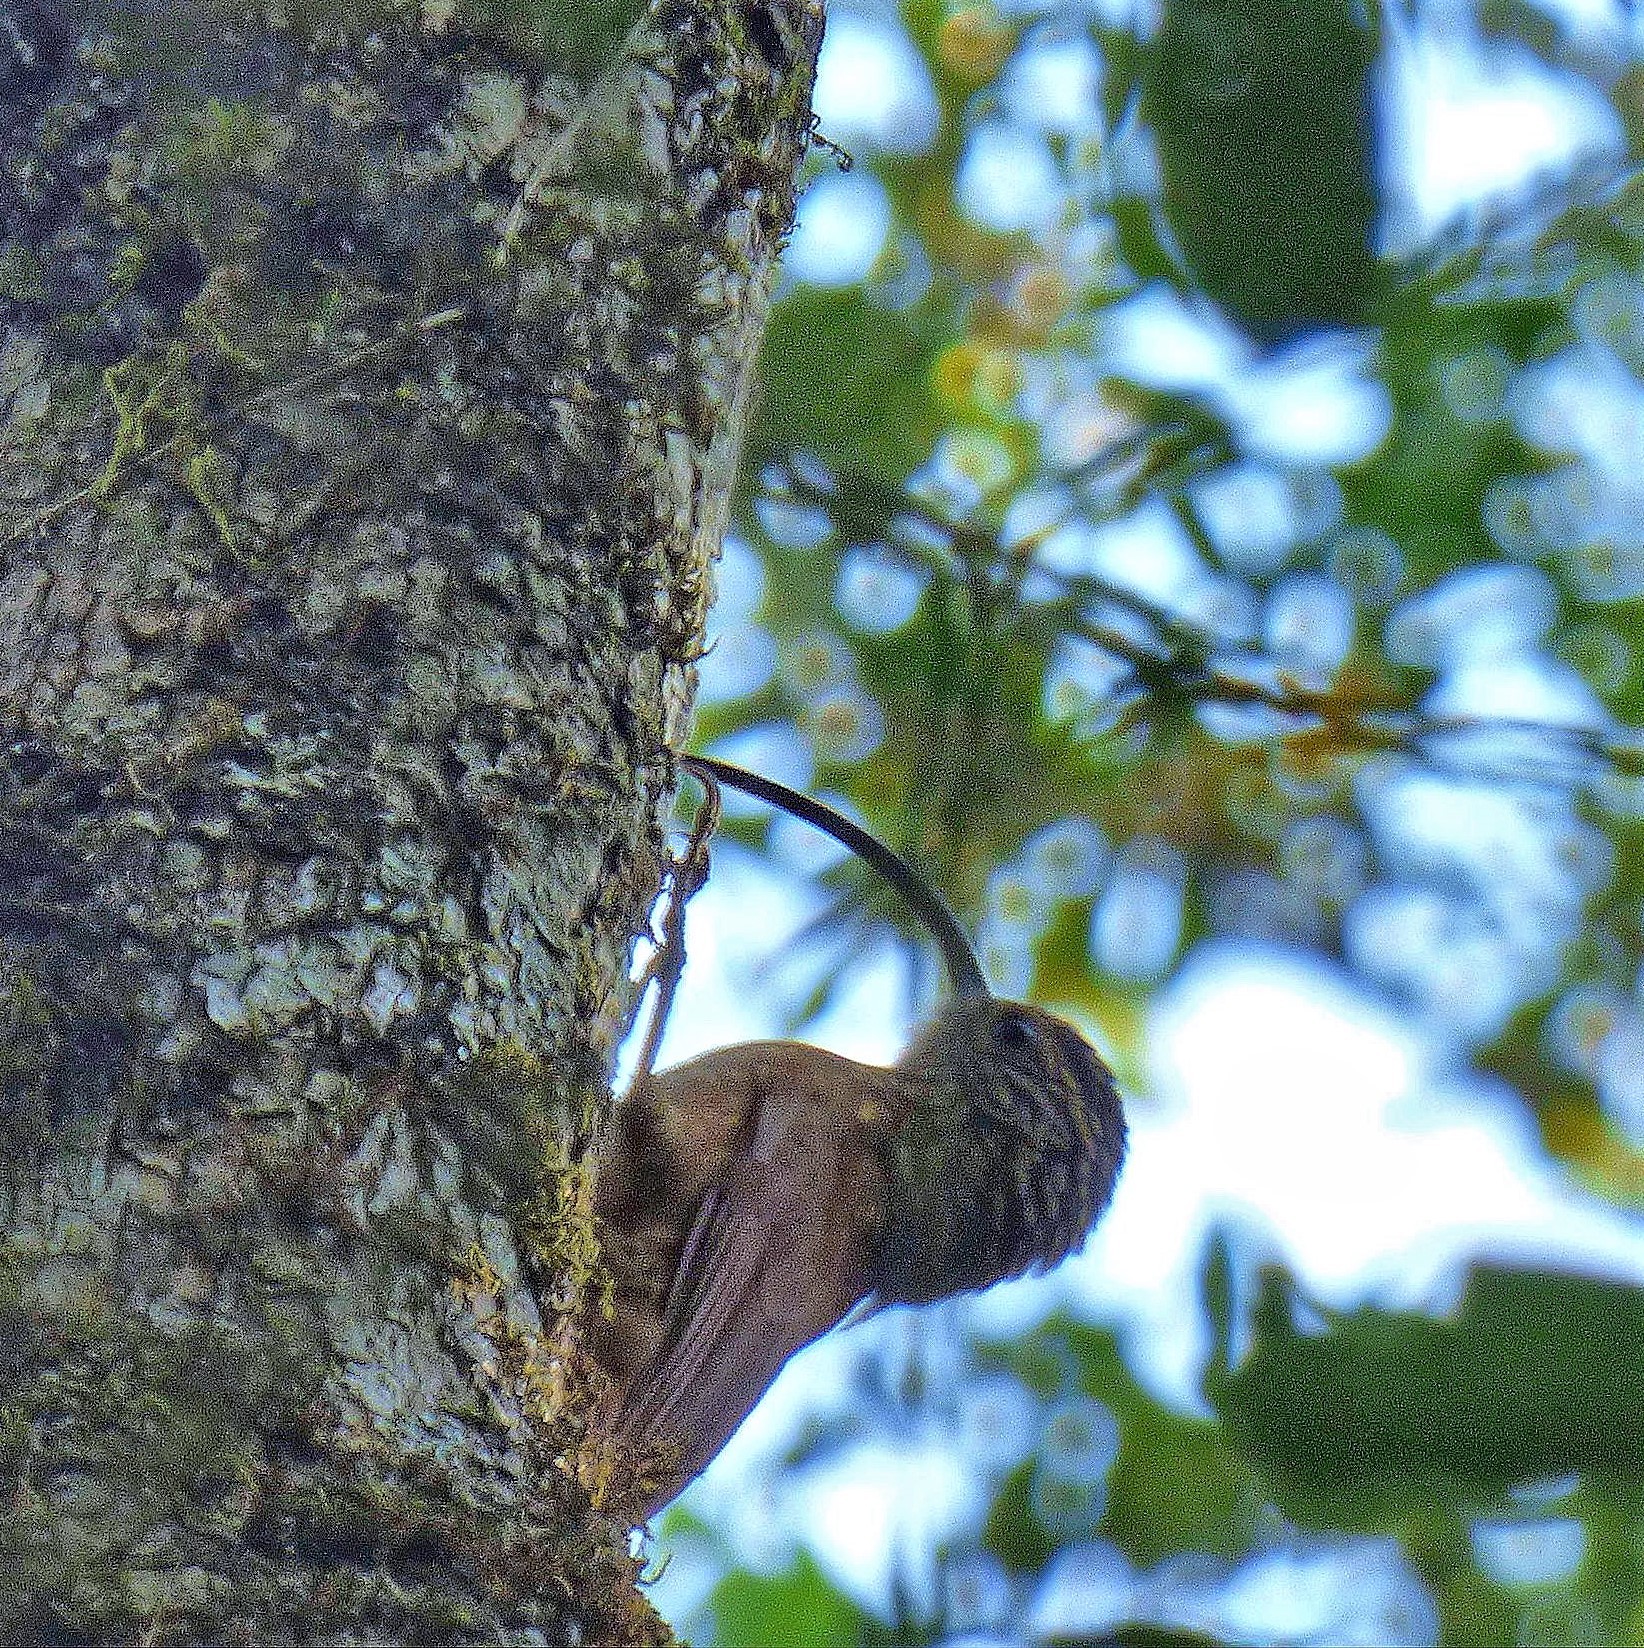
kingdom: Animalia
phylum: Chordata
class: Aves
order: Passeriformes
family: Furnariidae
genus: Campylorhamphus
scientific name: Campylorhamphus falcularius
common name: Black-billed scythebill
